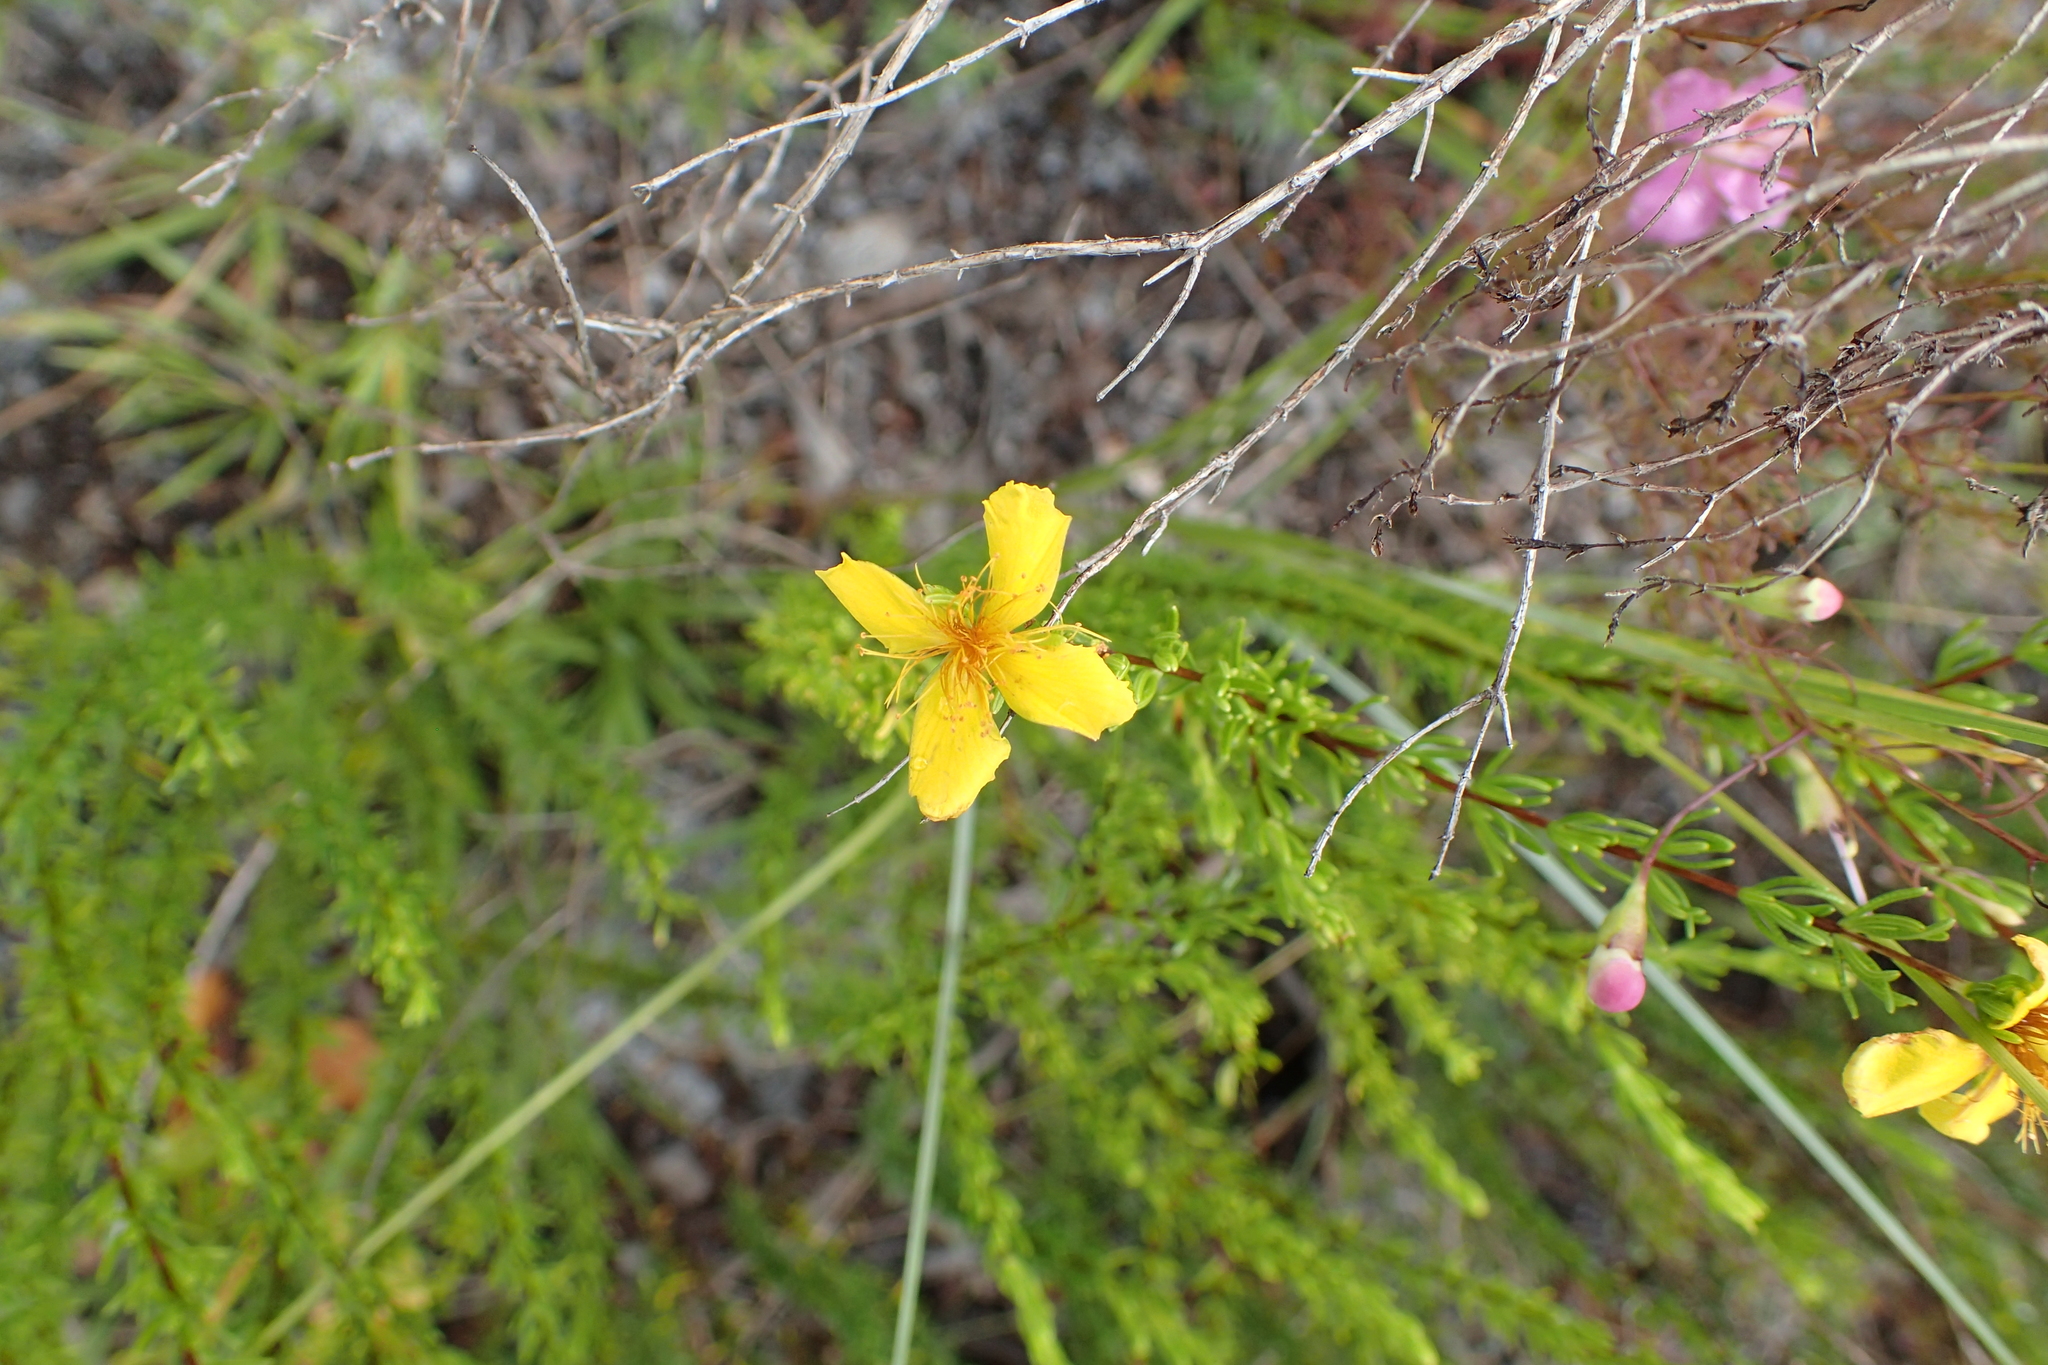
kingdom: Plantae
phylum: Tracheophyta
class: Magnoliopsida
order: Malpighiales
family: Hypericaceae
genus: Hypericum
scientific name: Hypericum tenuifolium
